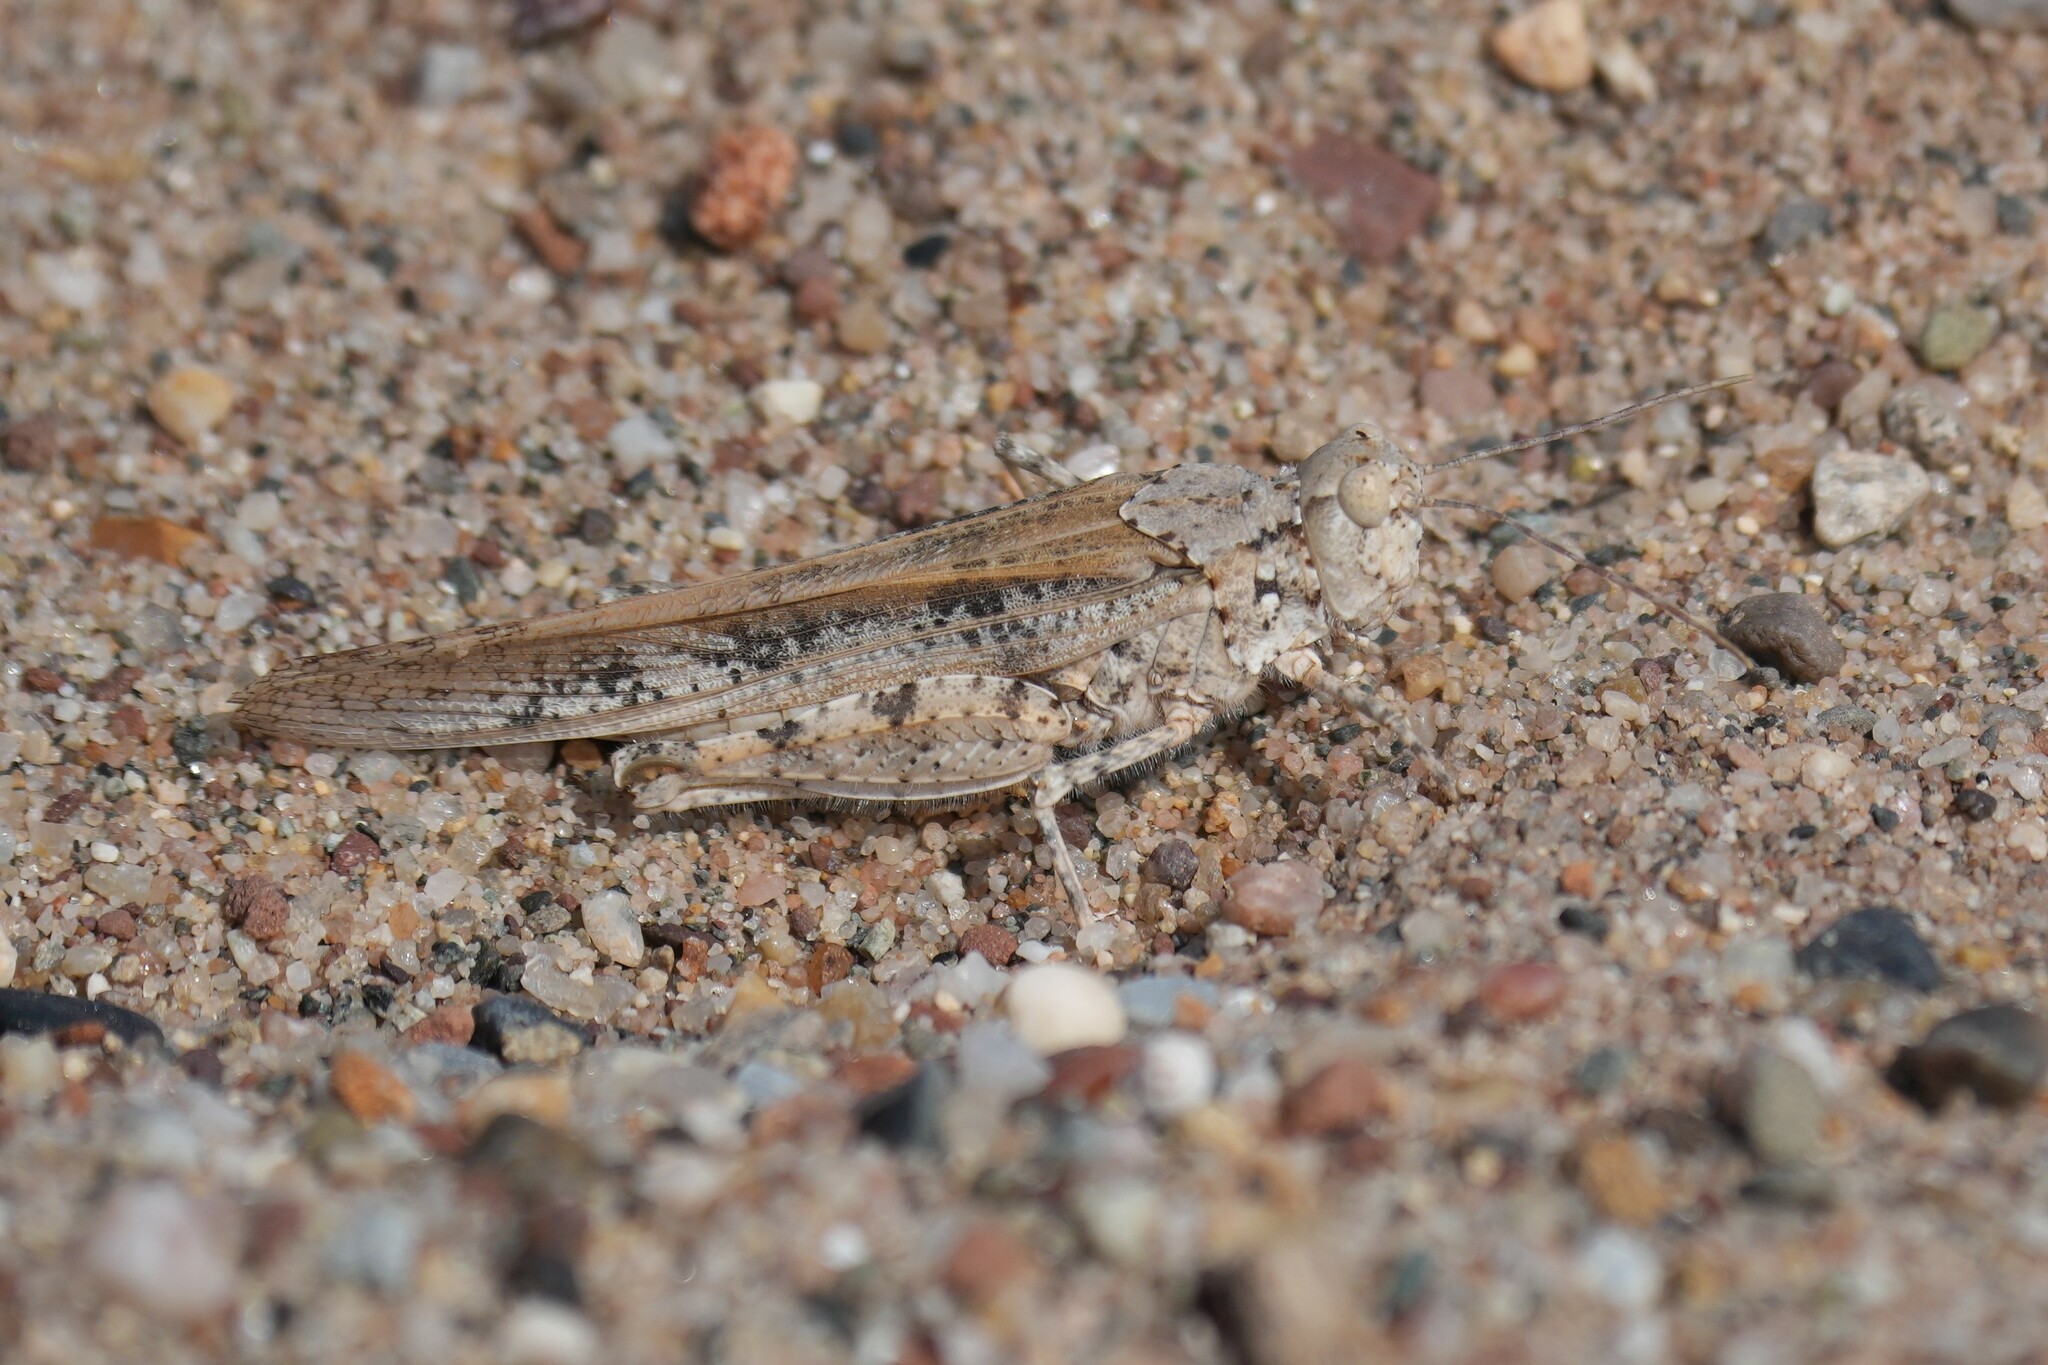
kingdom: Animalia
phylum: Arthropoda
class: Insecta
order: Orthoptera
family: Acrididae
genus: Trimerotropis
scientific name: Trimerotropis maritima
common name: Seaside locust
